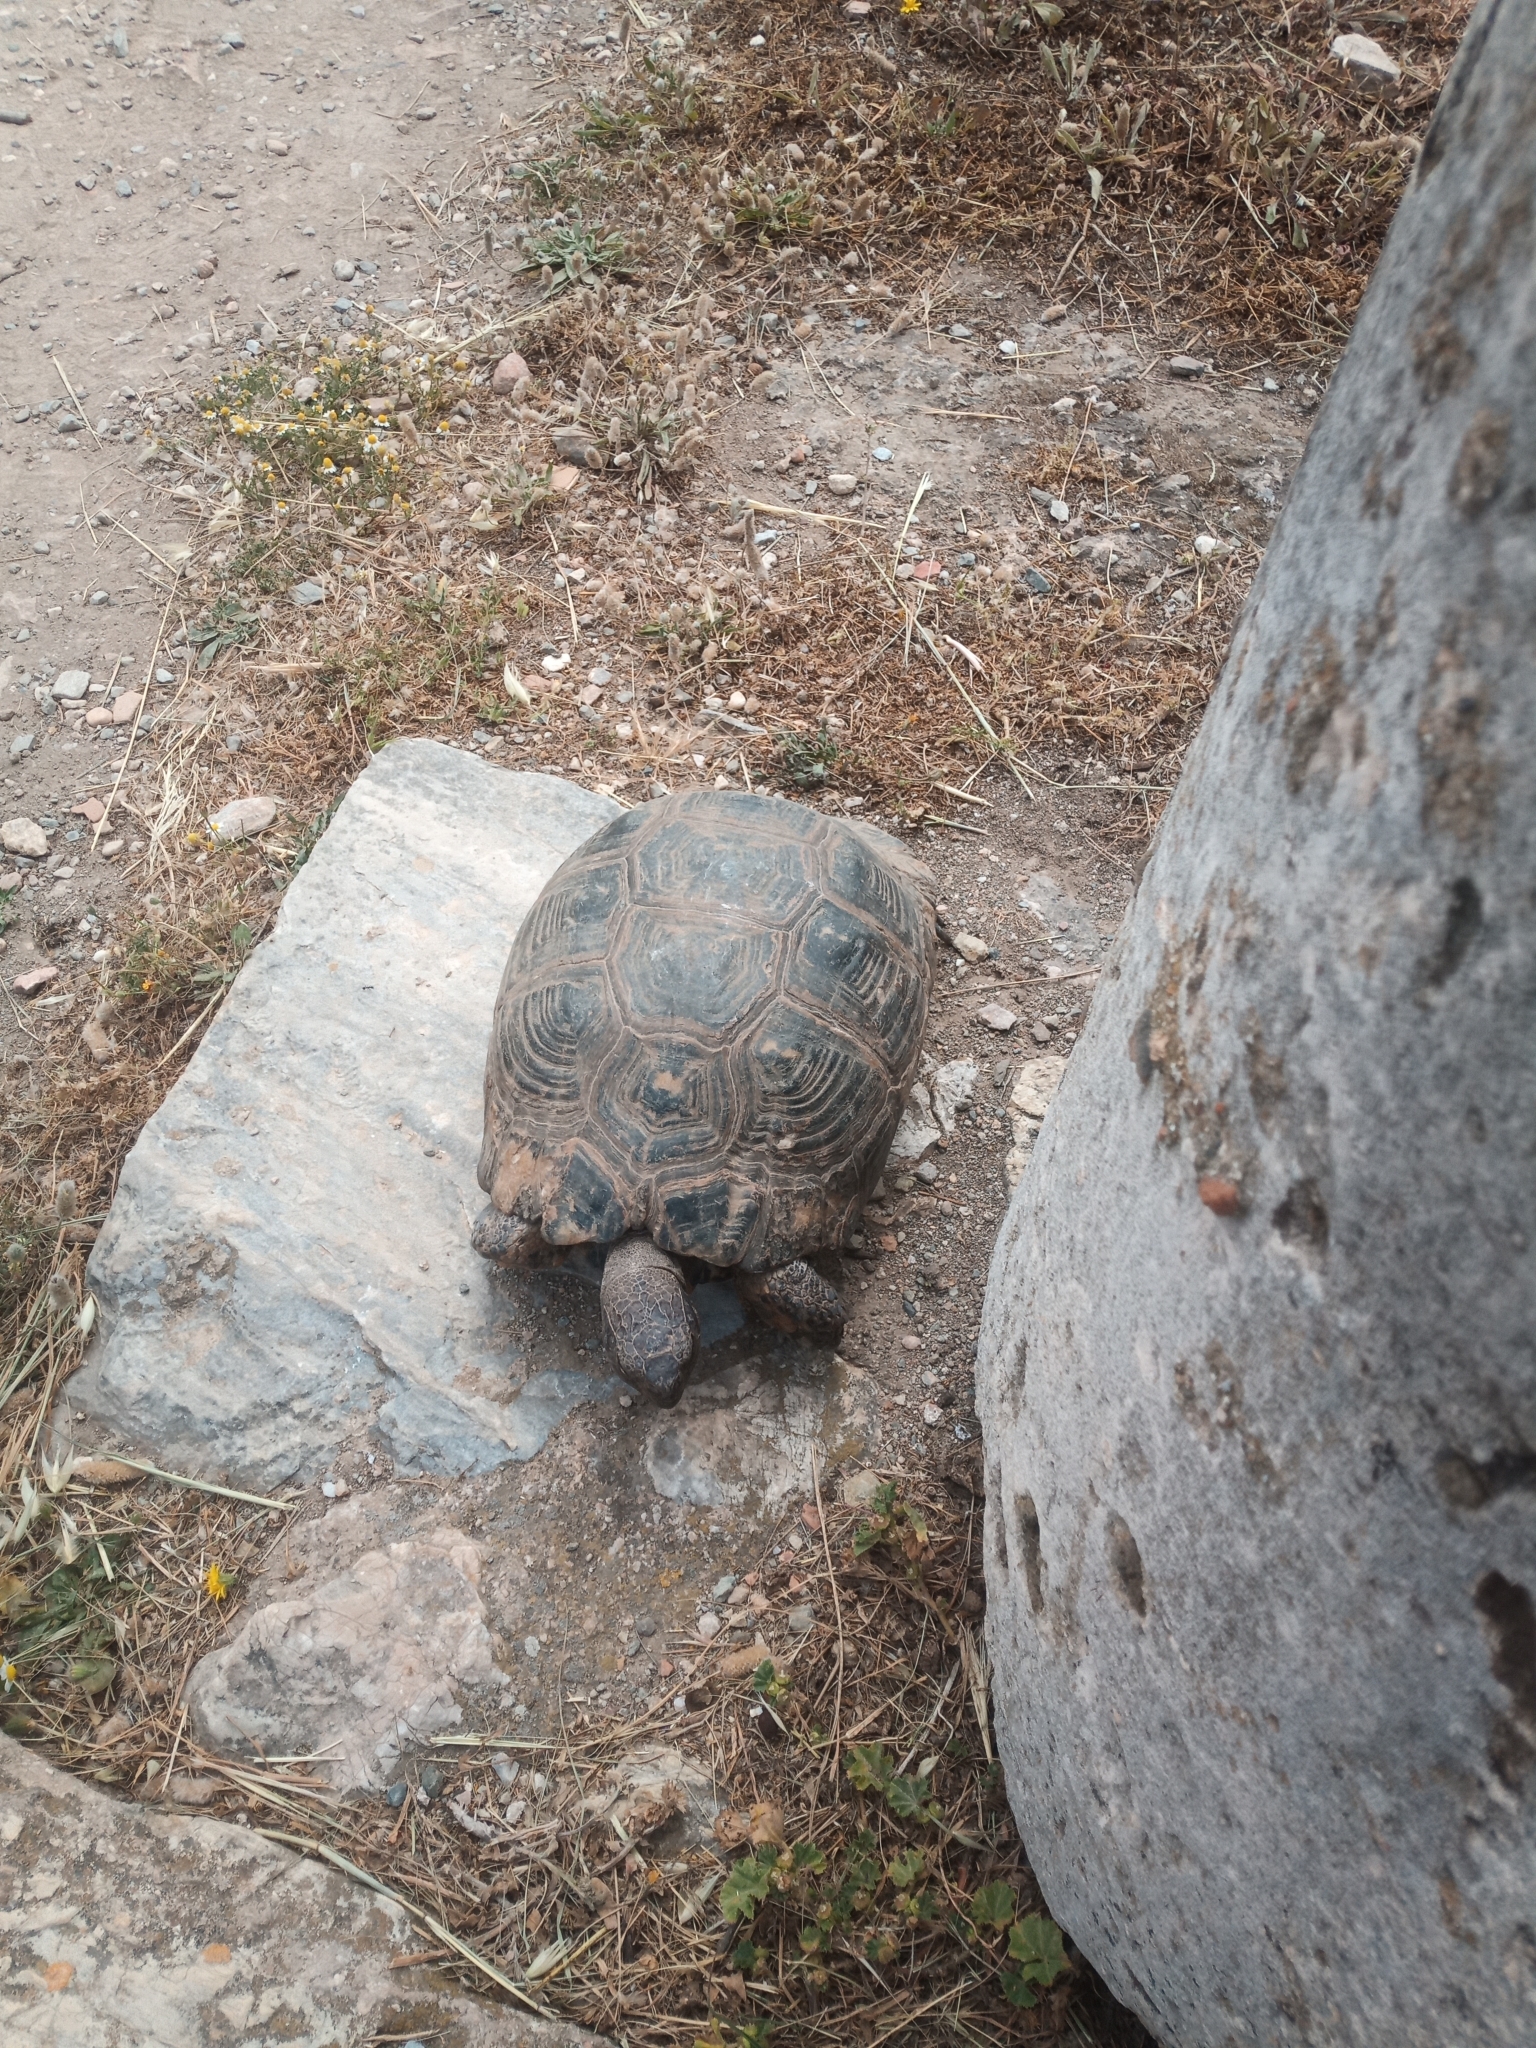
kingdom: Animalia
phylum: Chordata
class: Testudines
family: Testudinidae
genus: Testudo
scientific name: Testudo marginata
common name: Marginated tortoise
